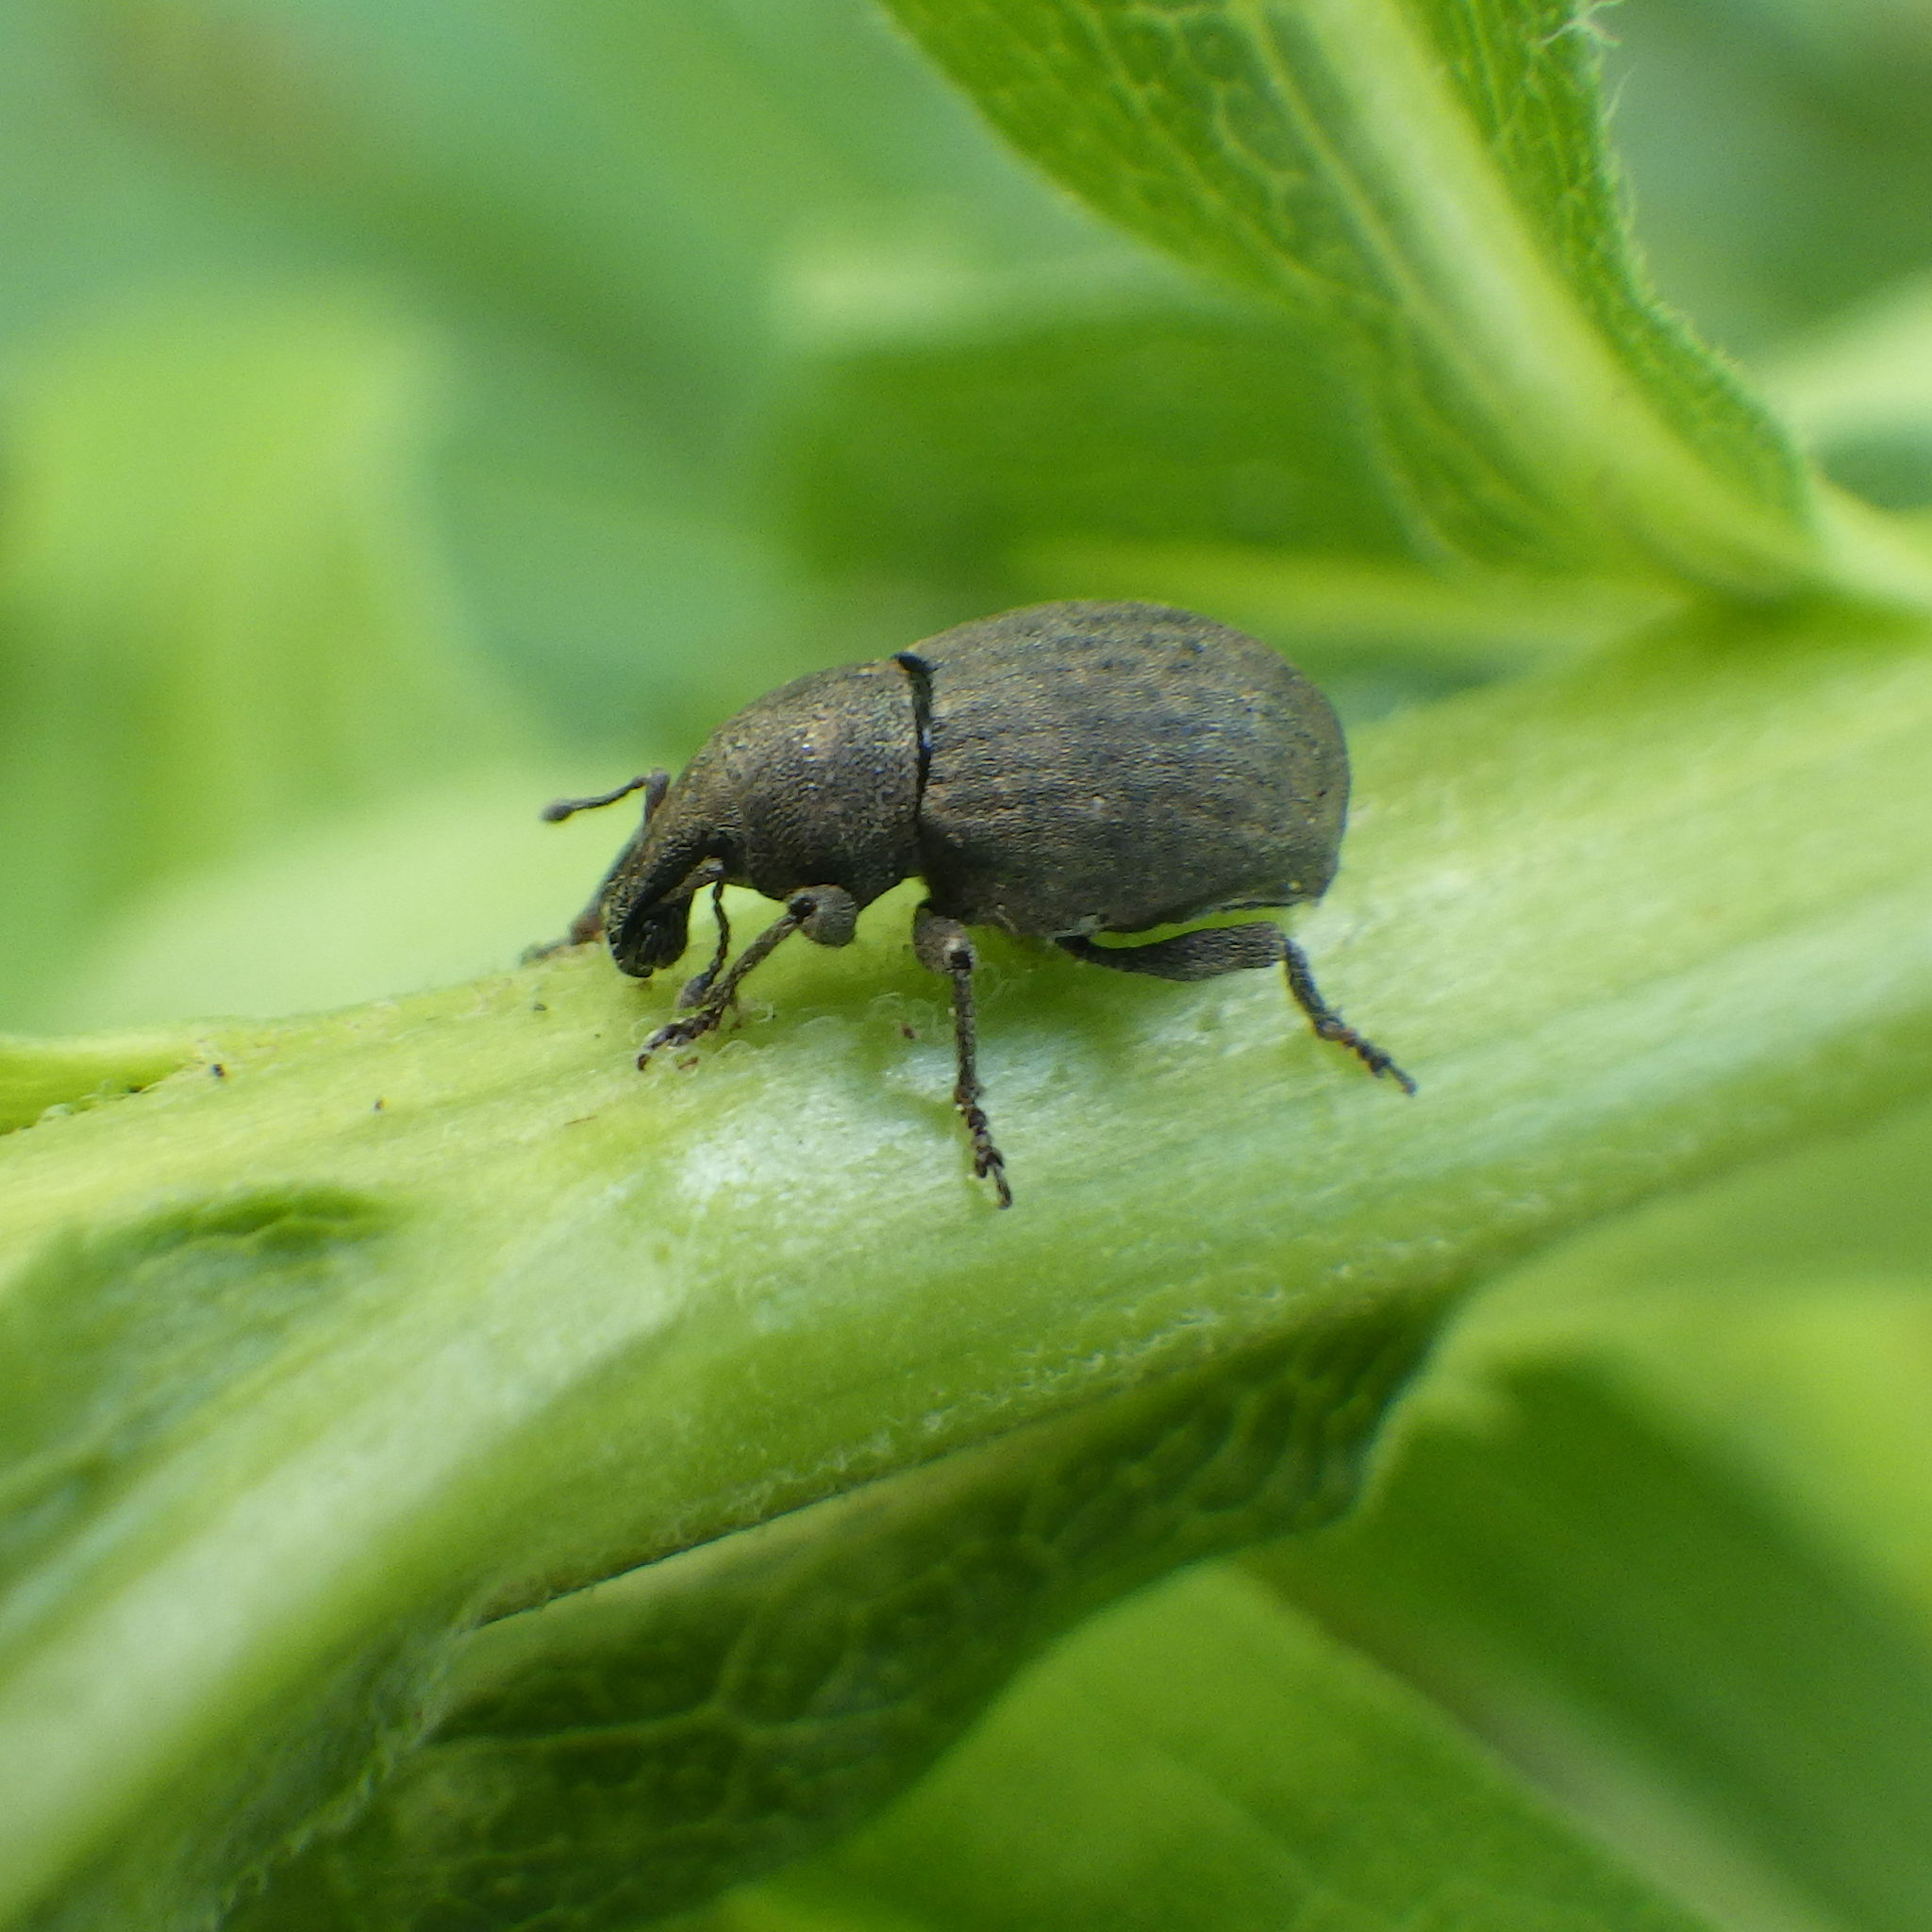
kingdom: Animalia
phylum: Arthropoda
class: Insecta
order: Coleoptera
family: Curculionidae
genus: Tropiphorus
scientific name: Tropiphorus terricola
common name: Weevil
